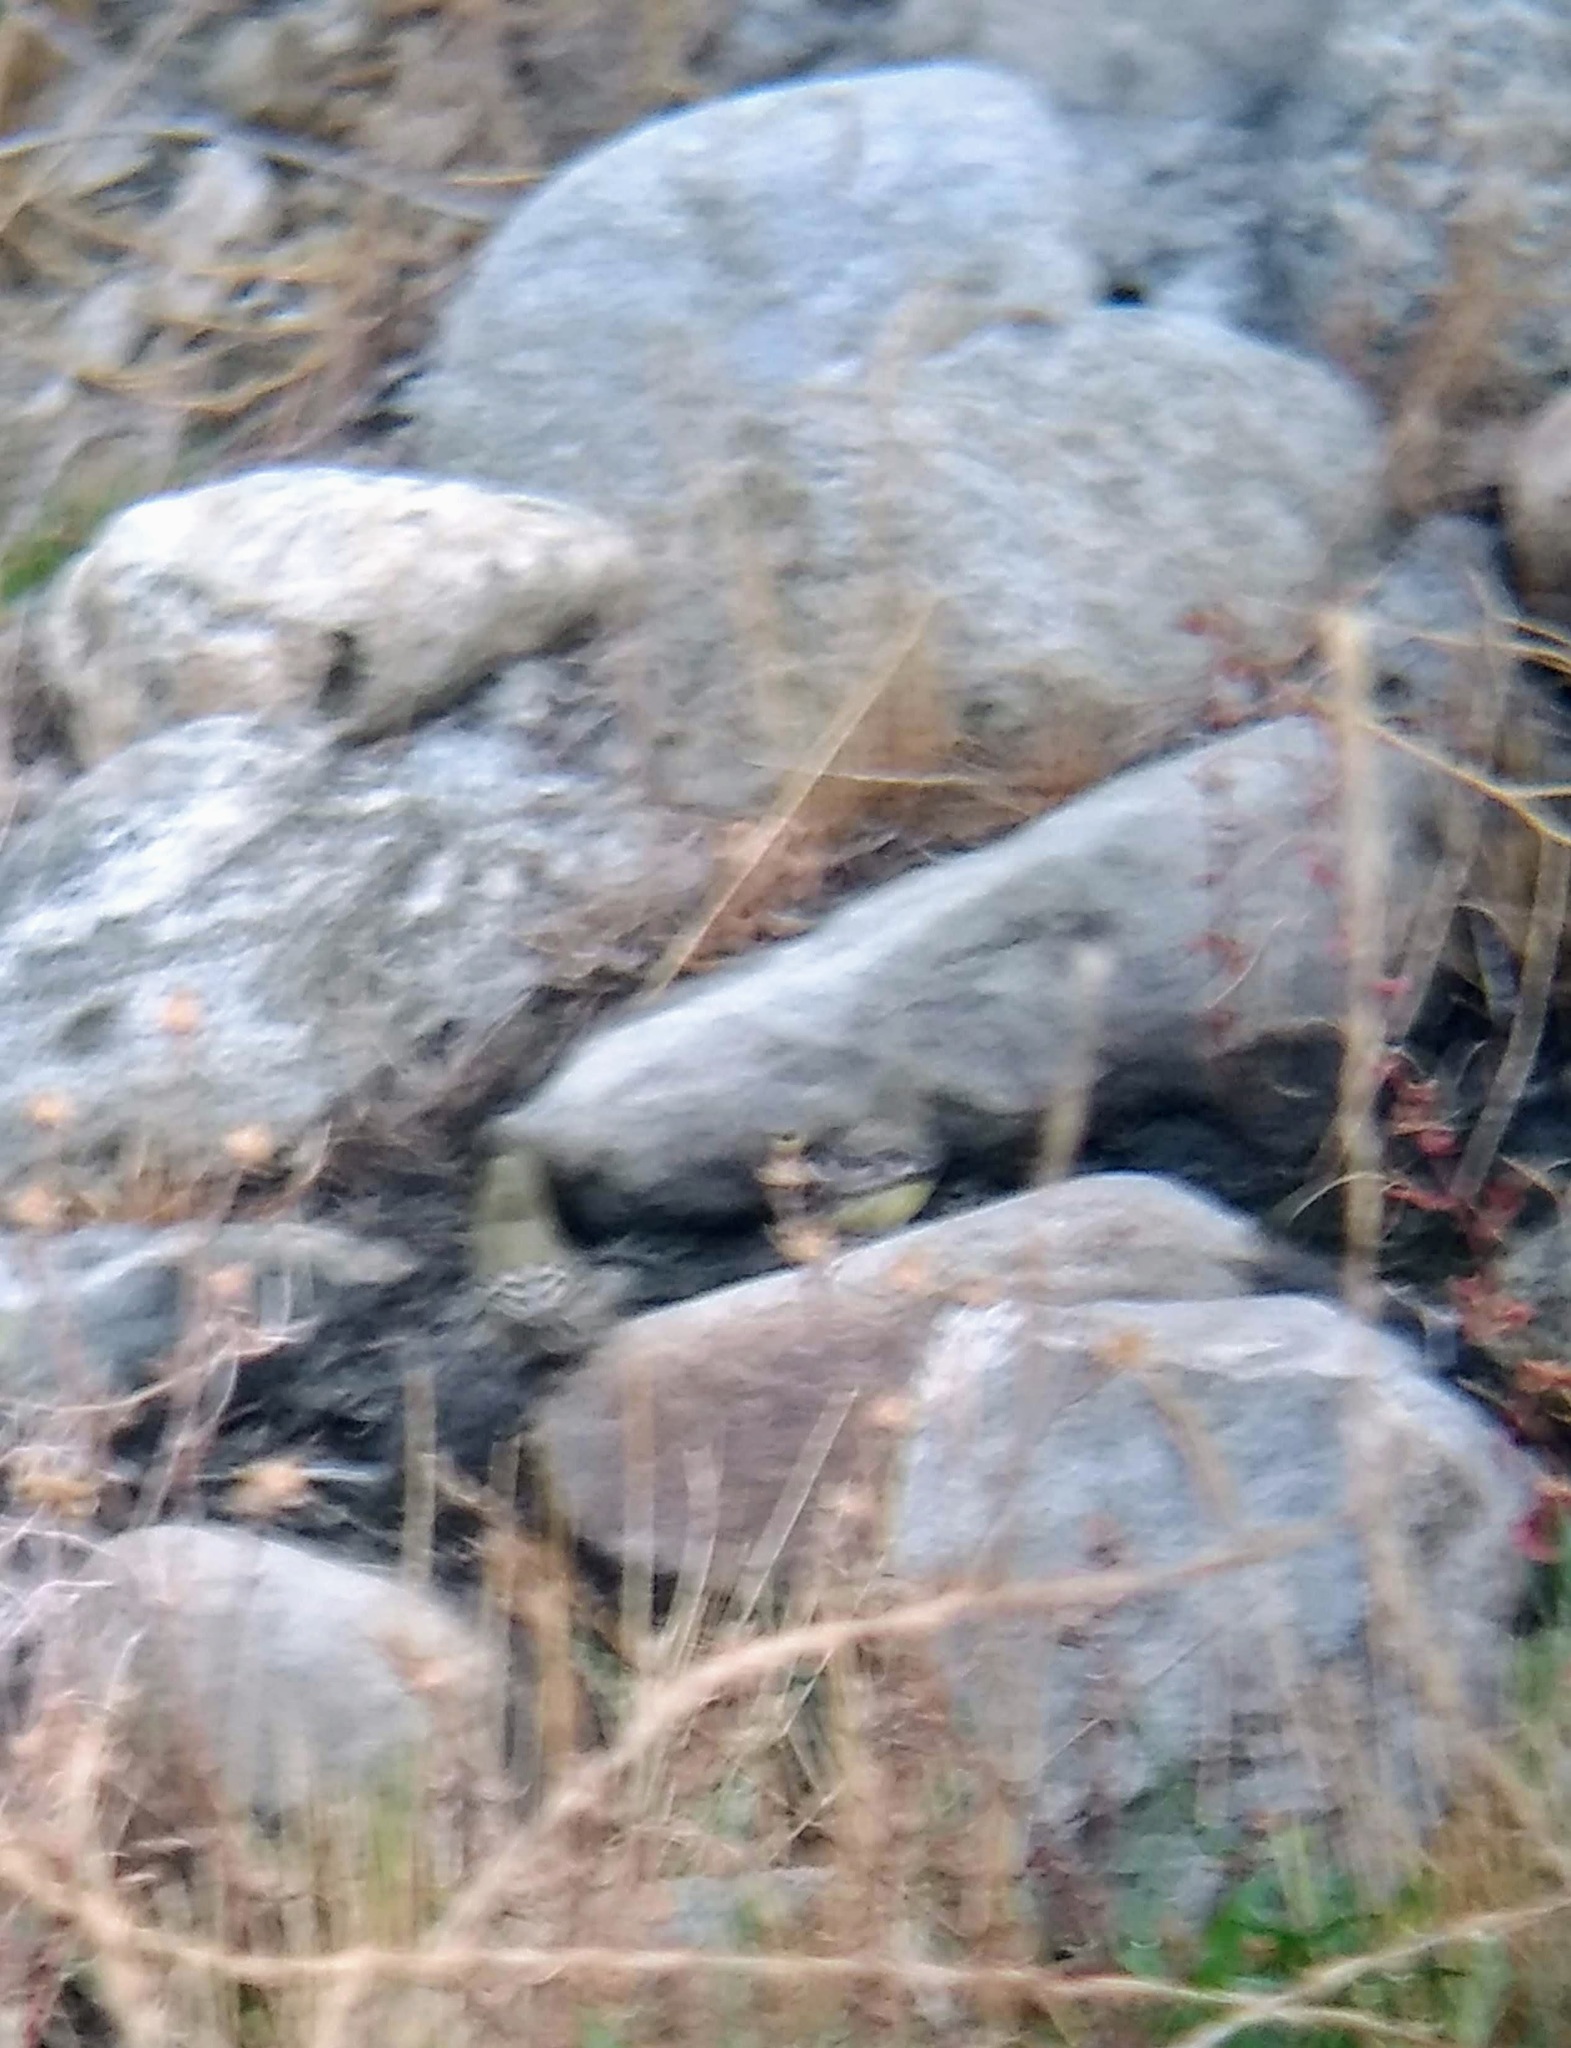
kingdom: Animalia
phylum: Chordata
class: Aves
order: Passeriformes
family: Fringillidae
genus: Spinus
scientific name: Spinus psaltria
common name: Lesser goldfinch
